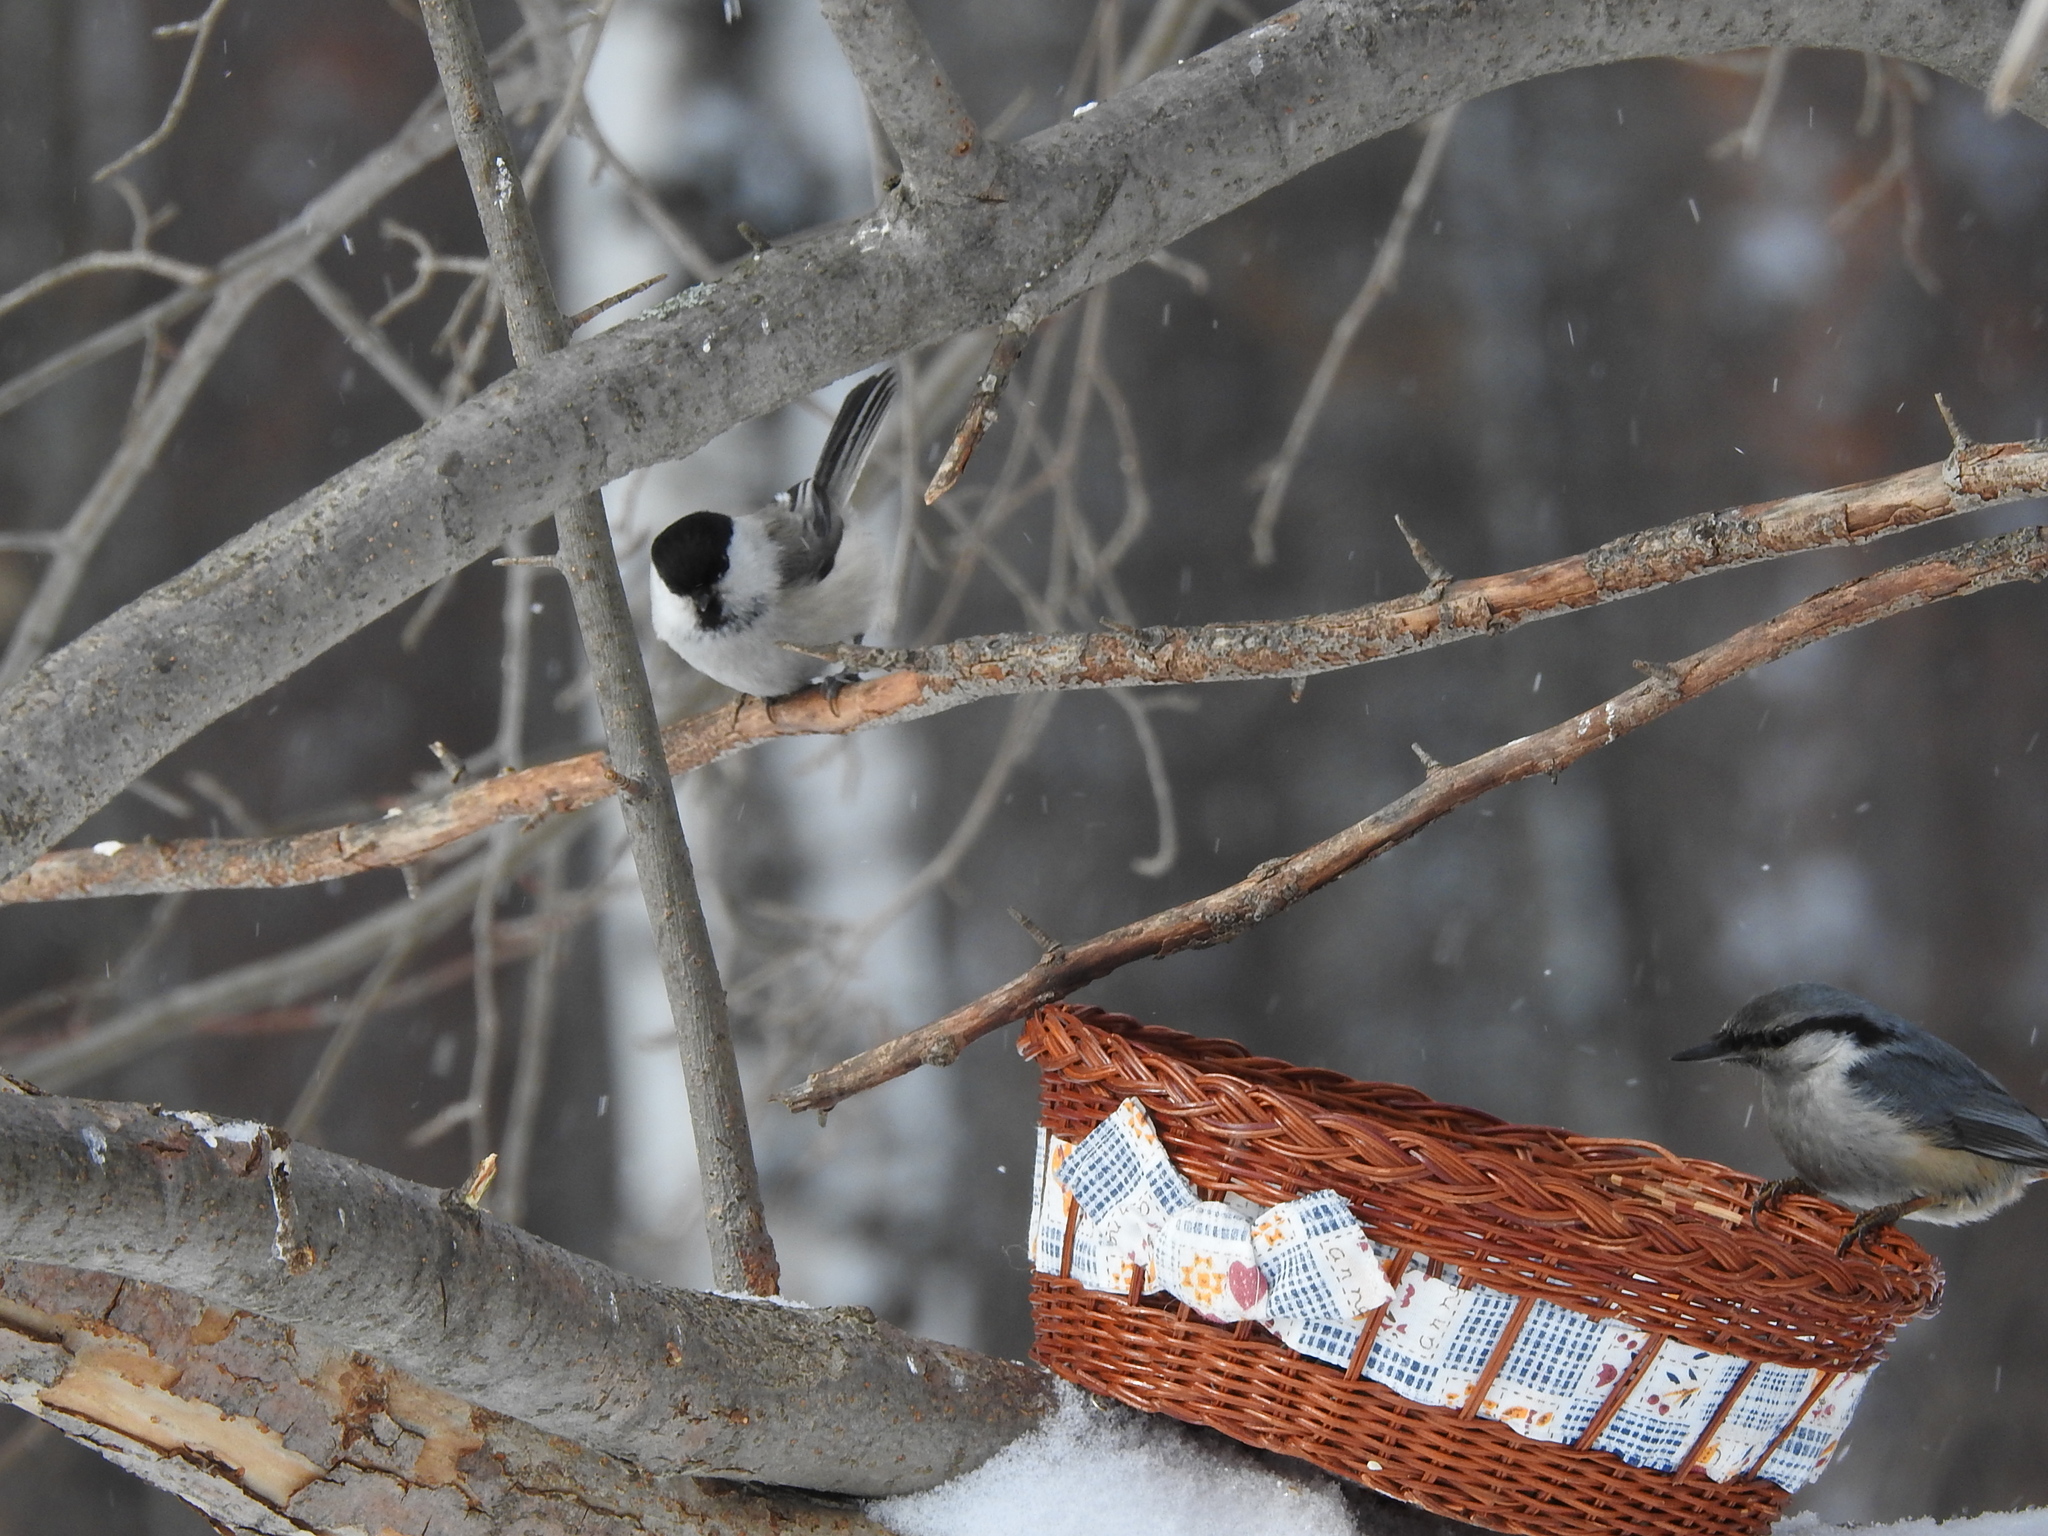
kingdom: Animalia
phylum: Chordata
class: Aves
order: Passeriformes
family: Paridae
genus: Poecile
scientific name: Poecile montanus
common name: Willow tit
